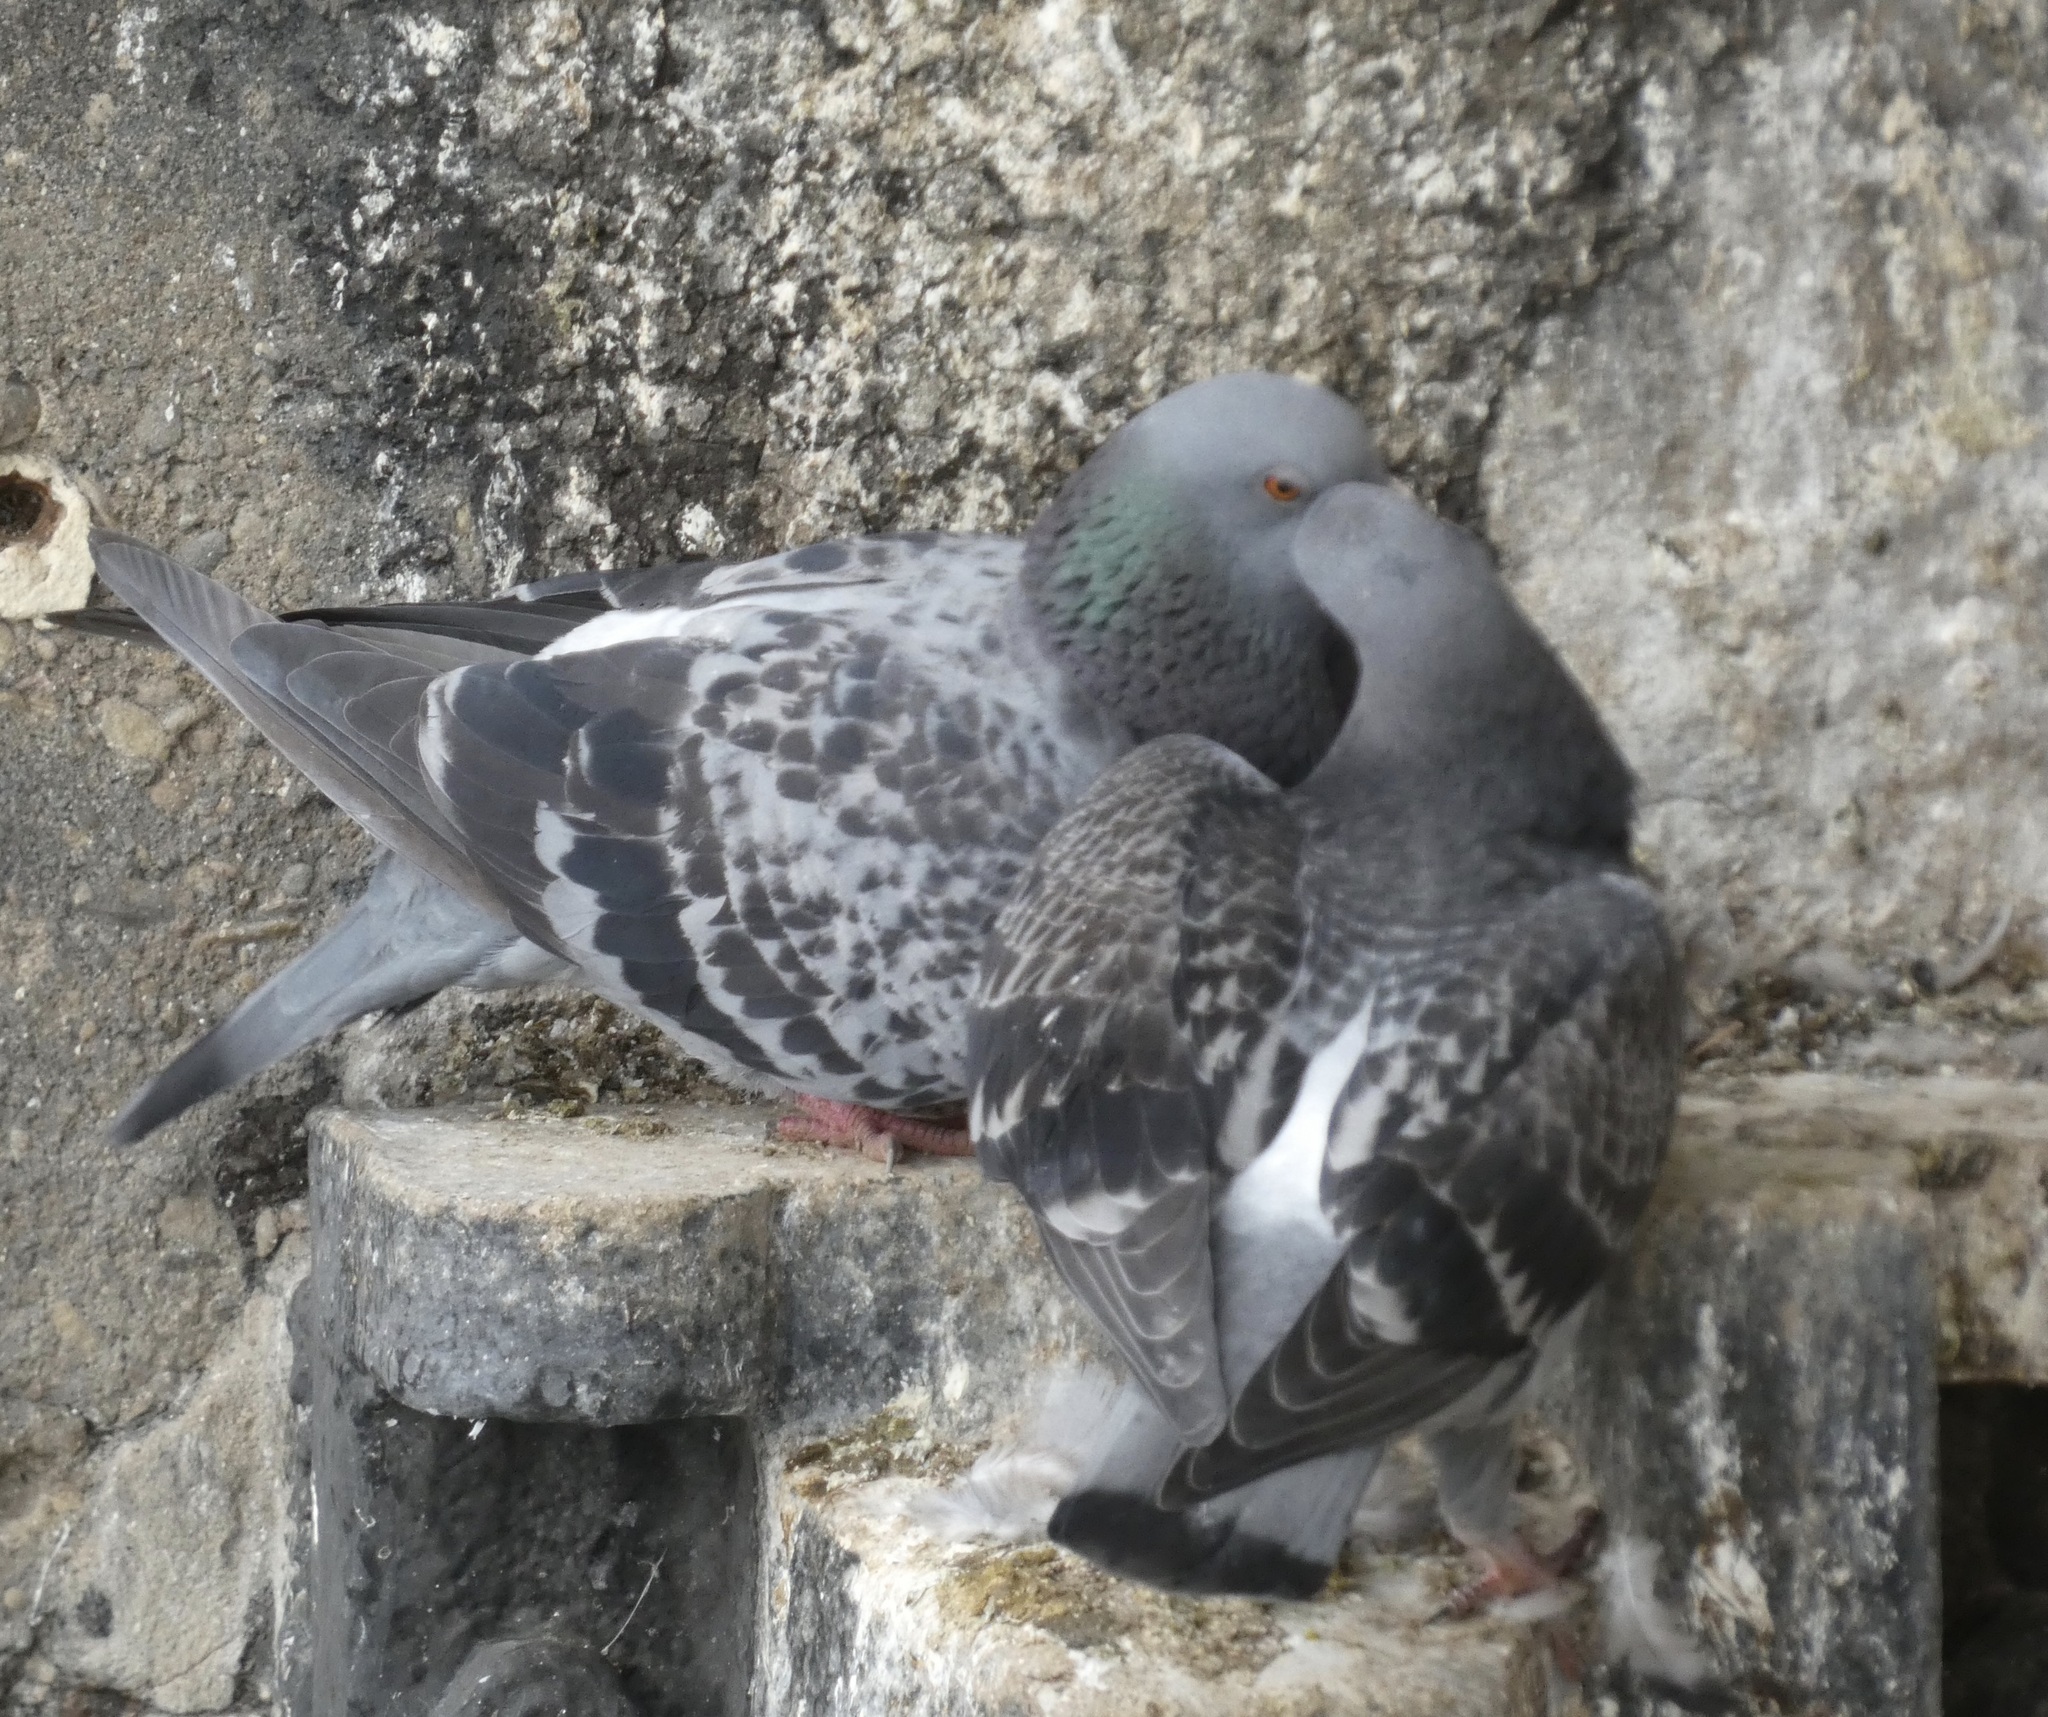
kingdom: Animalia
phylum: Chordata
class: Aves
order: Columbiformes
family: Columbidae
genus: Columba
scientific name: Columba livia
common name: Rock pigeon
